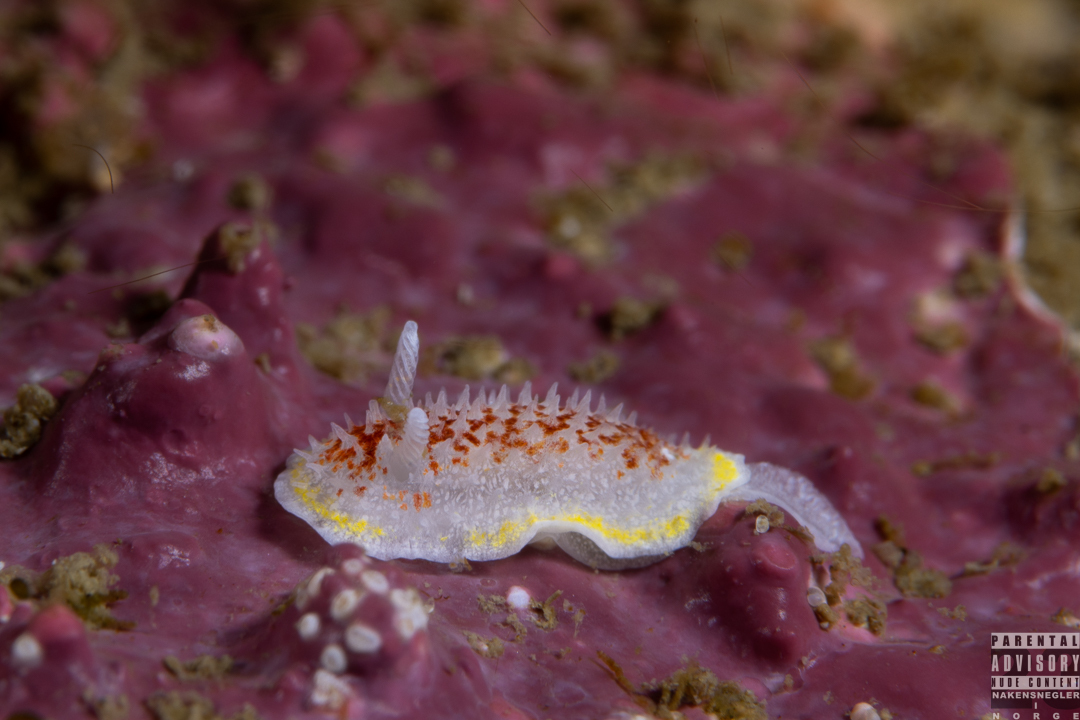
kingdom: Animalia
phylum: Mollusca
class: Gastropoda
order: Nudibranchia
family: Calycidorididae
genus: Diaphorodoris
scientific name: Diaphorodoris luteocincta
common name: Fried egg nudibranch
